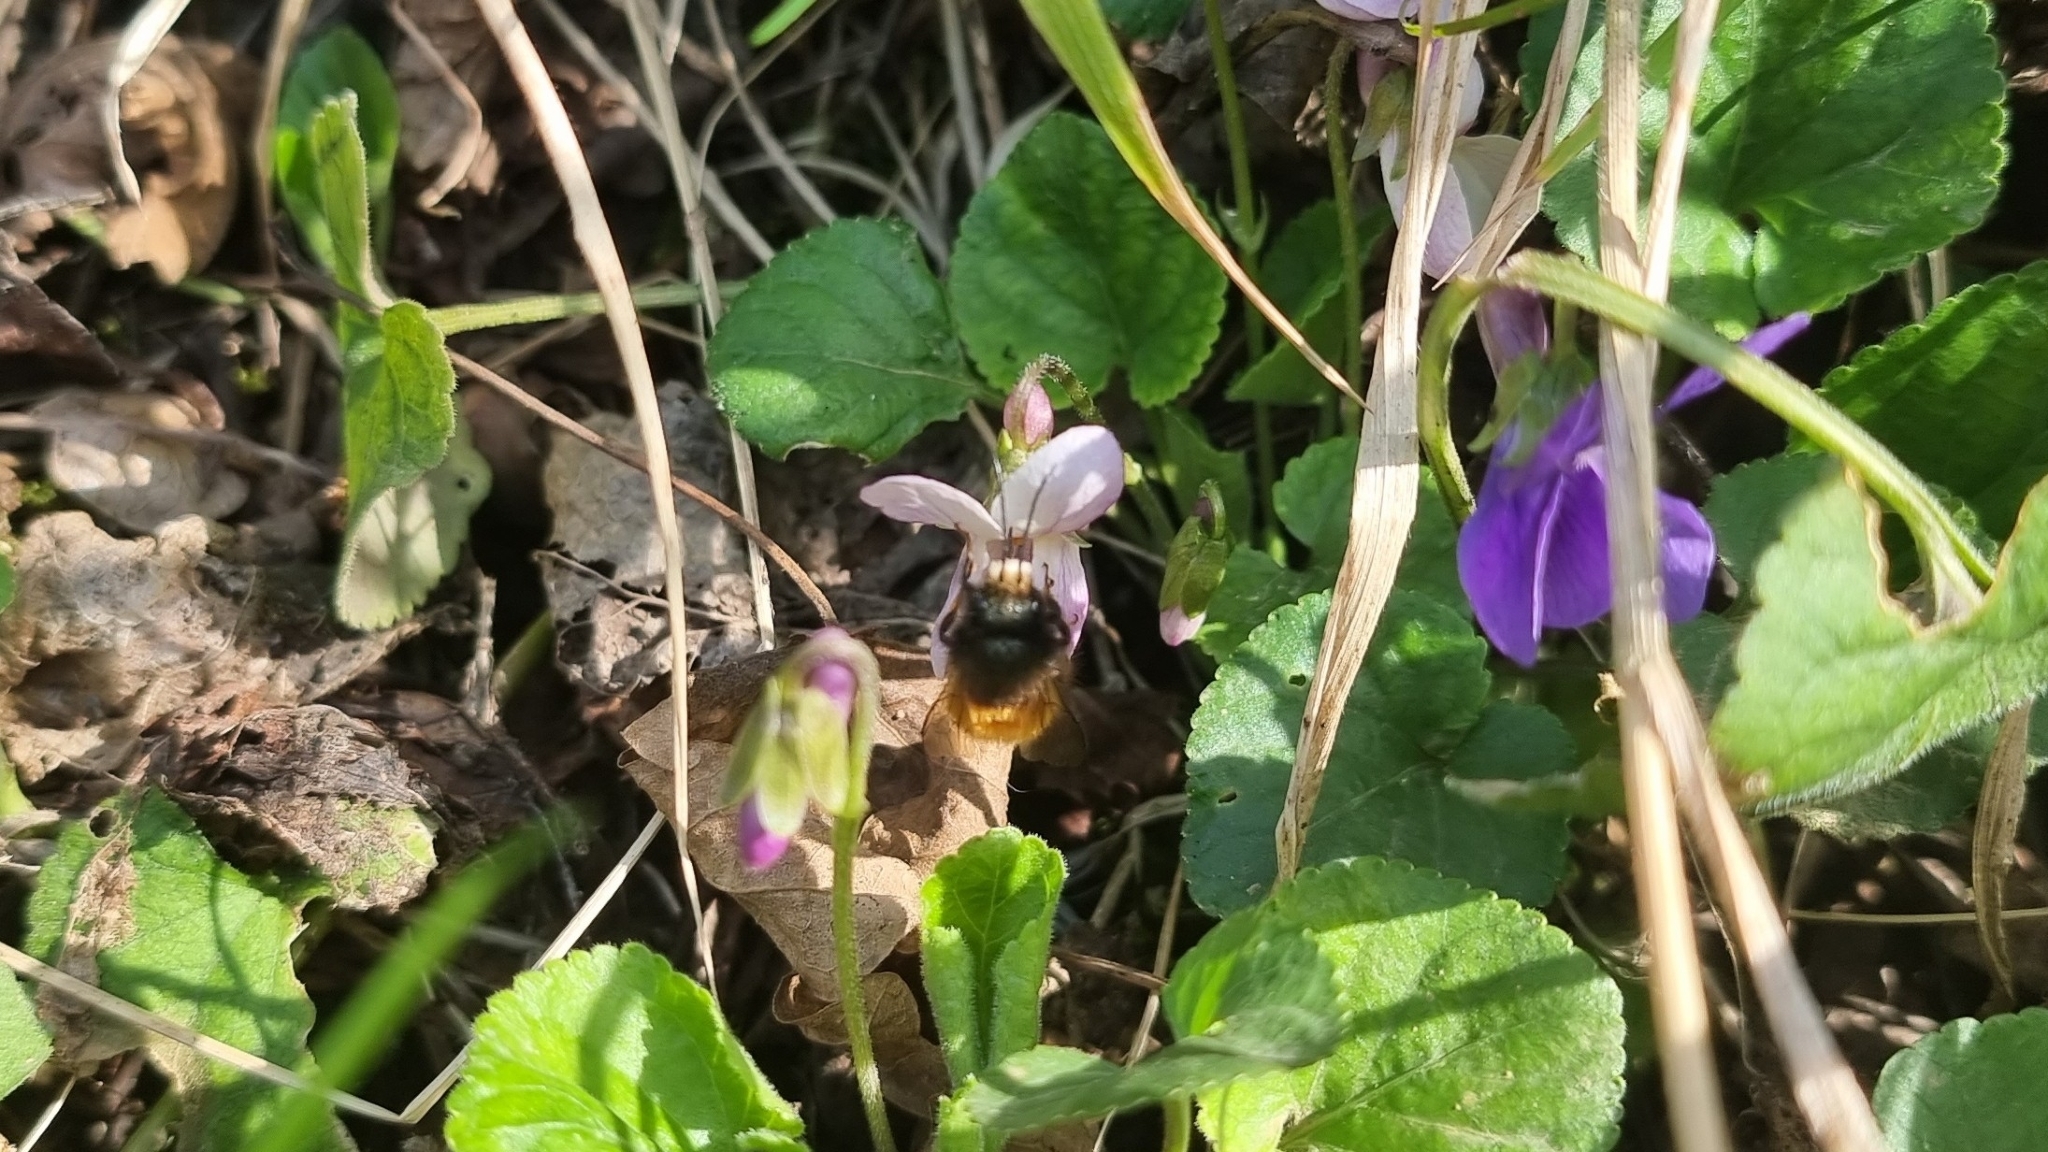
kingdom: Animalia
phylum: Arthropoda
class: Insecta
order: Hymenoptera
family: Megachilidae
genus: Osmia
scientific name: Osmia cornuta
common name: Mason bee
